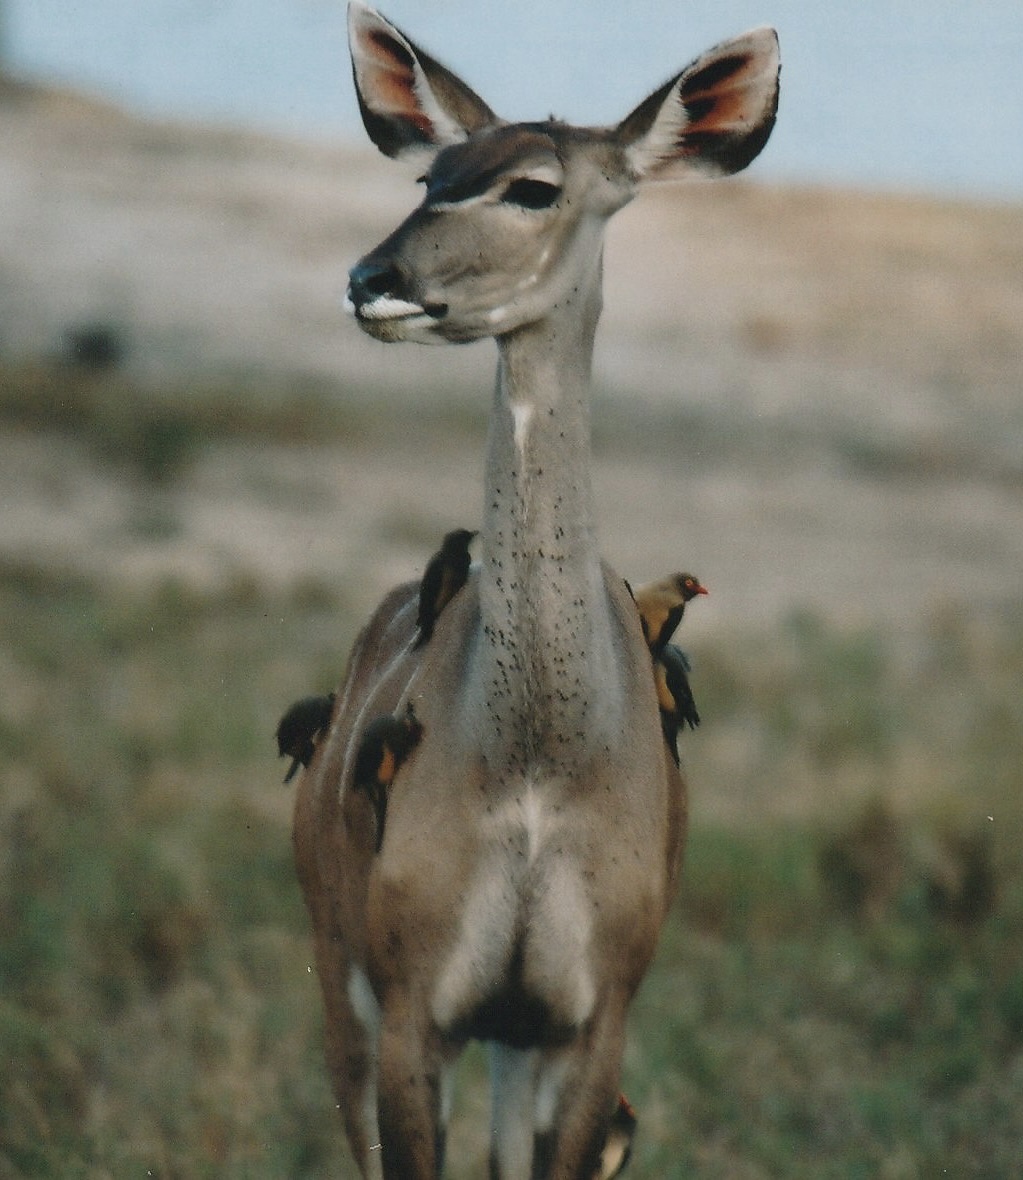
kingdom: Animalia
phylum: Chordata
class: Mammalia
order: Artiodactyla
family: Bovidae
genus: Tragelaphus
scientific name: Tragelaphus strepsiceros
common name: Greater kudu
